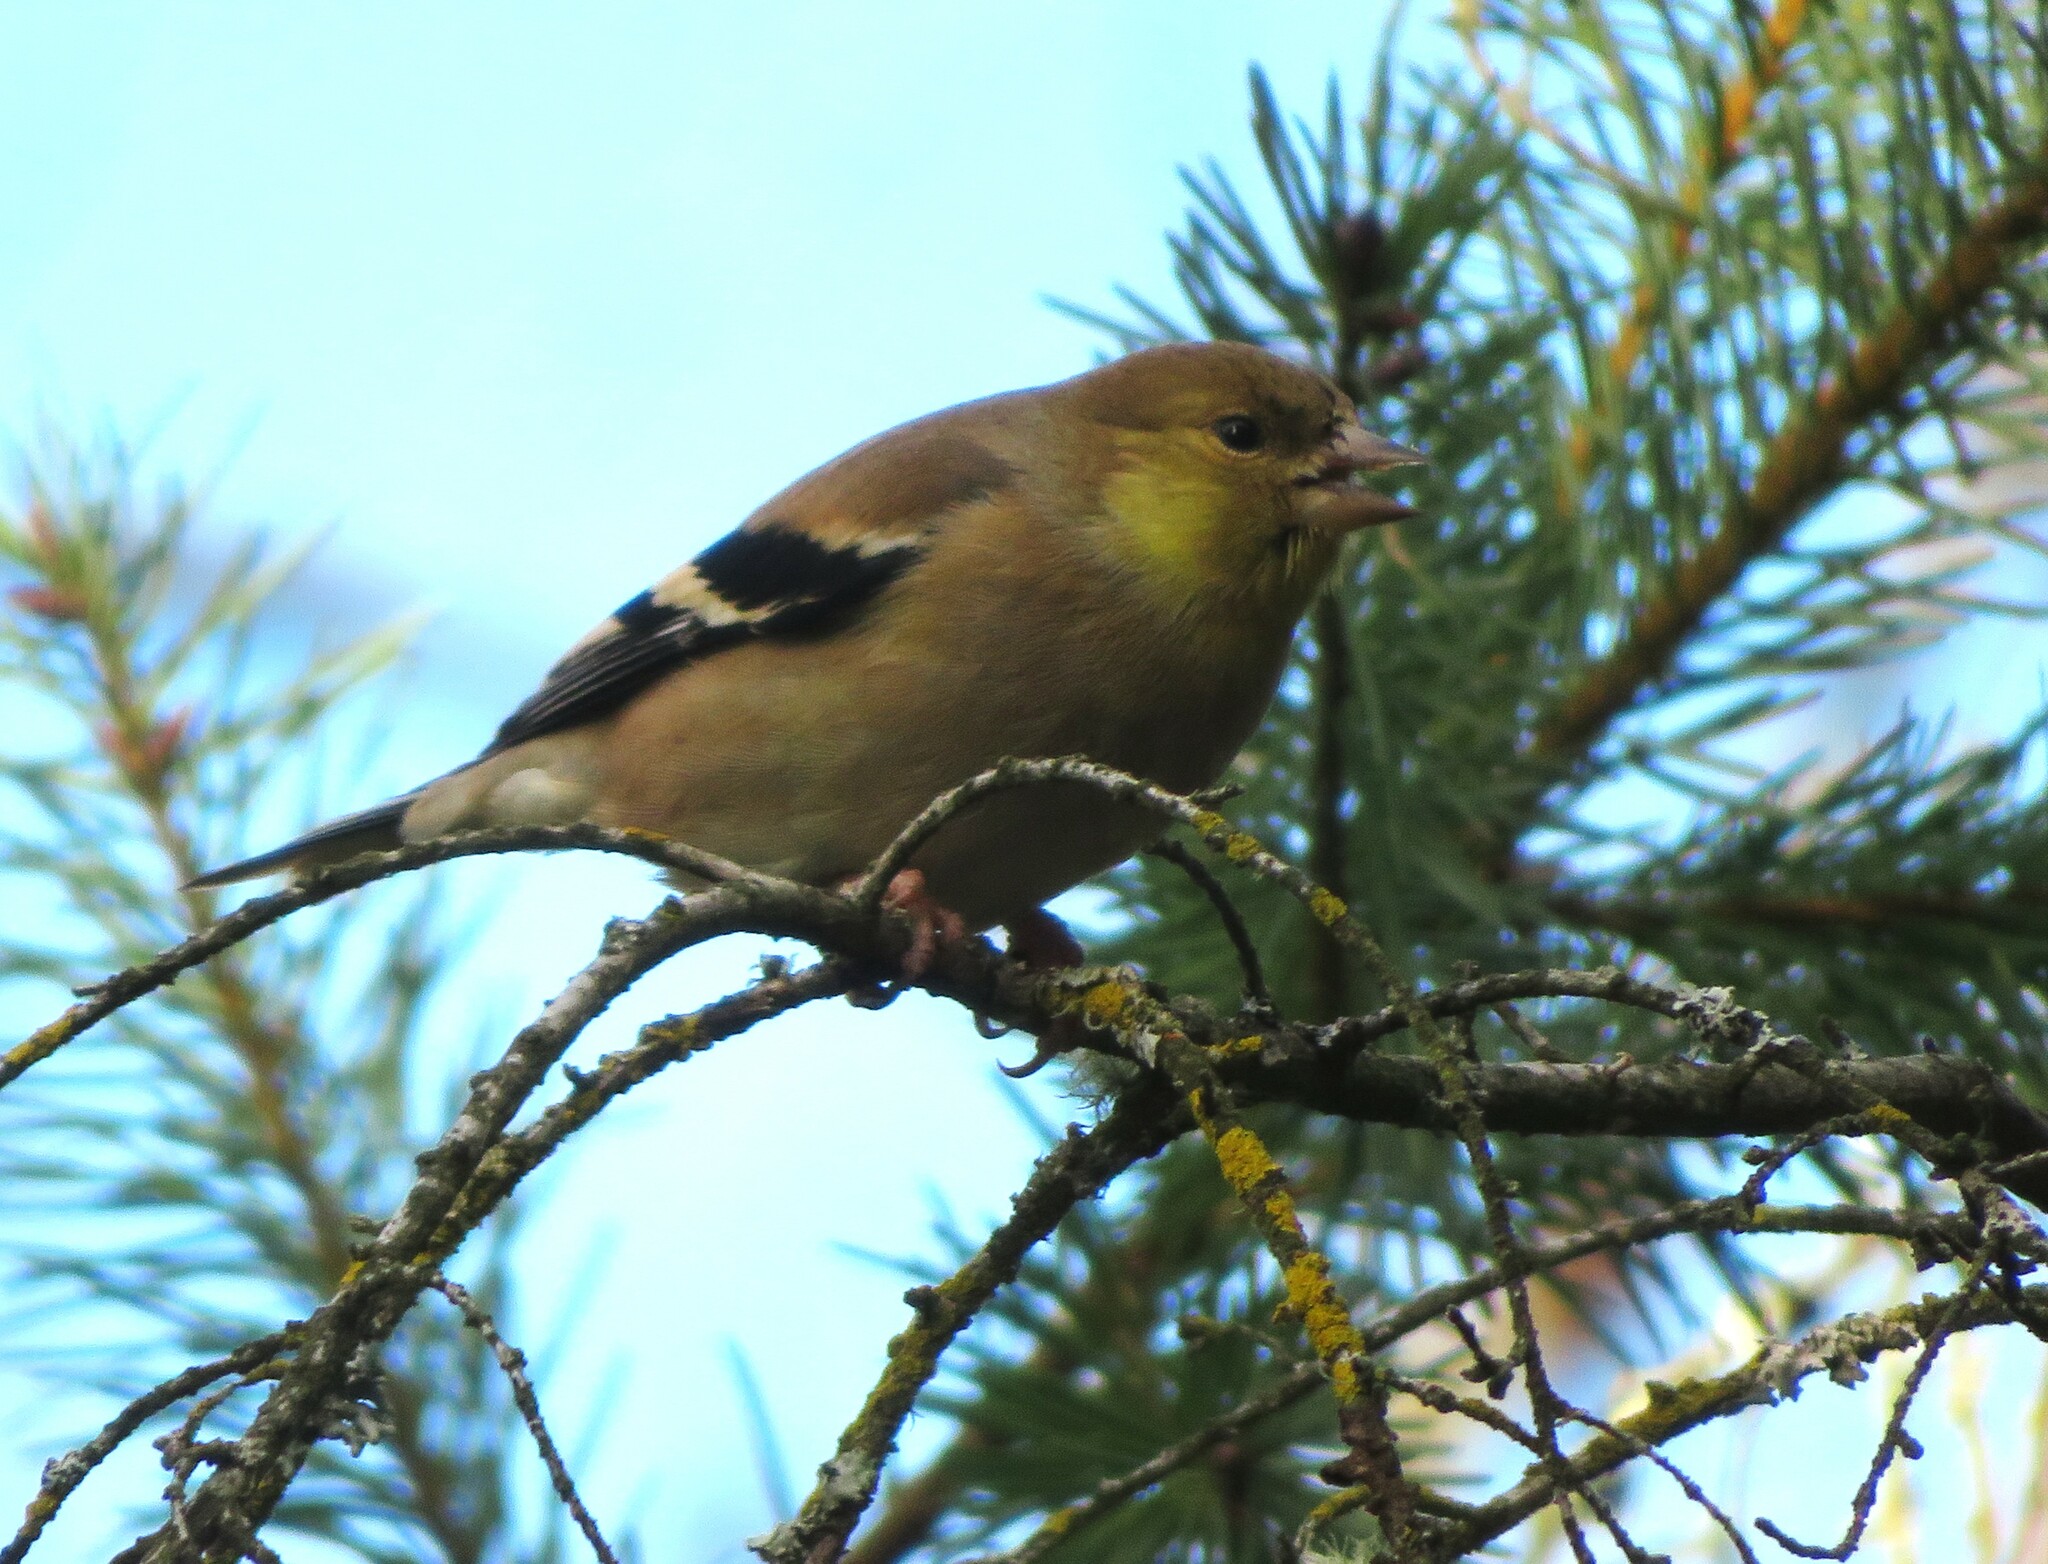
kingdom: Animalia
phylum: Chordata
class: Aves
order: Passeriformes
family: Fringillidae
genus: Spinus
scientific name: Spinus tristis
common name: American goldfinch
